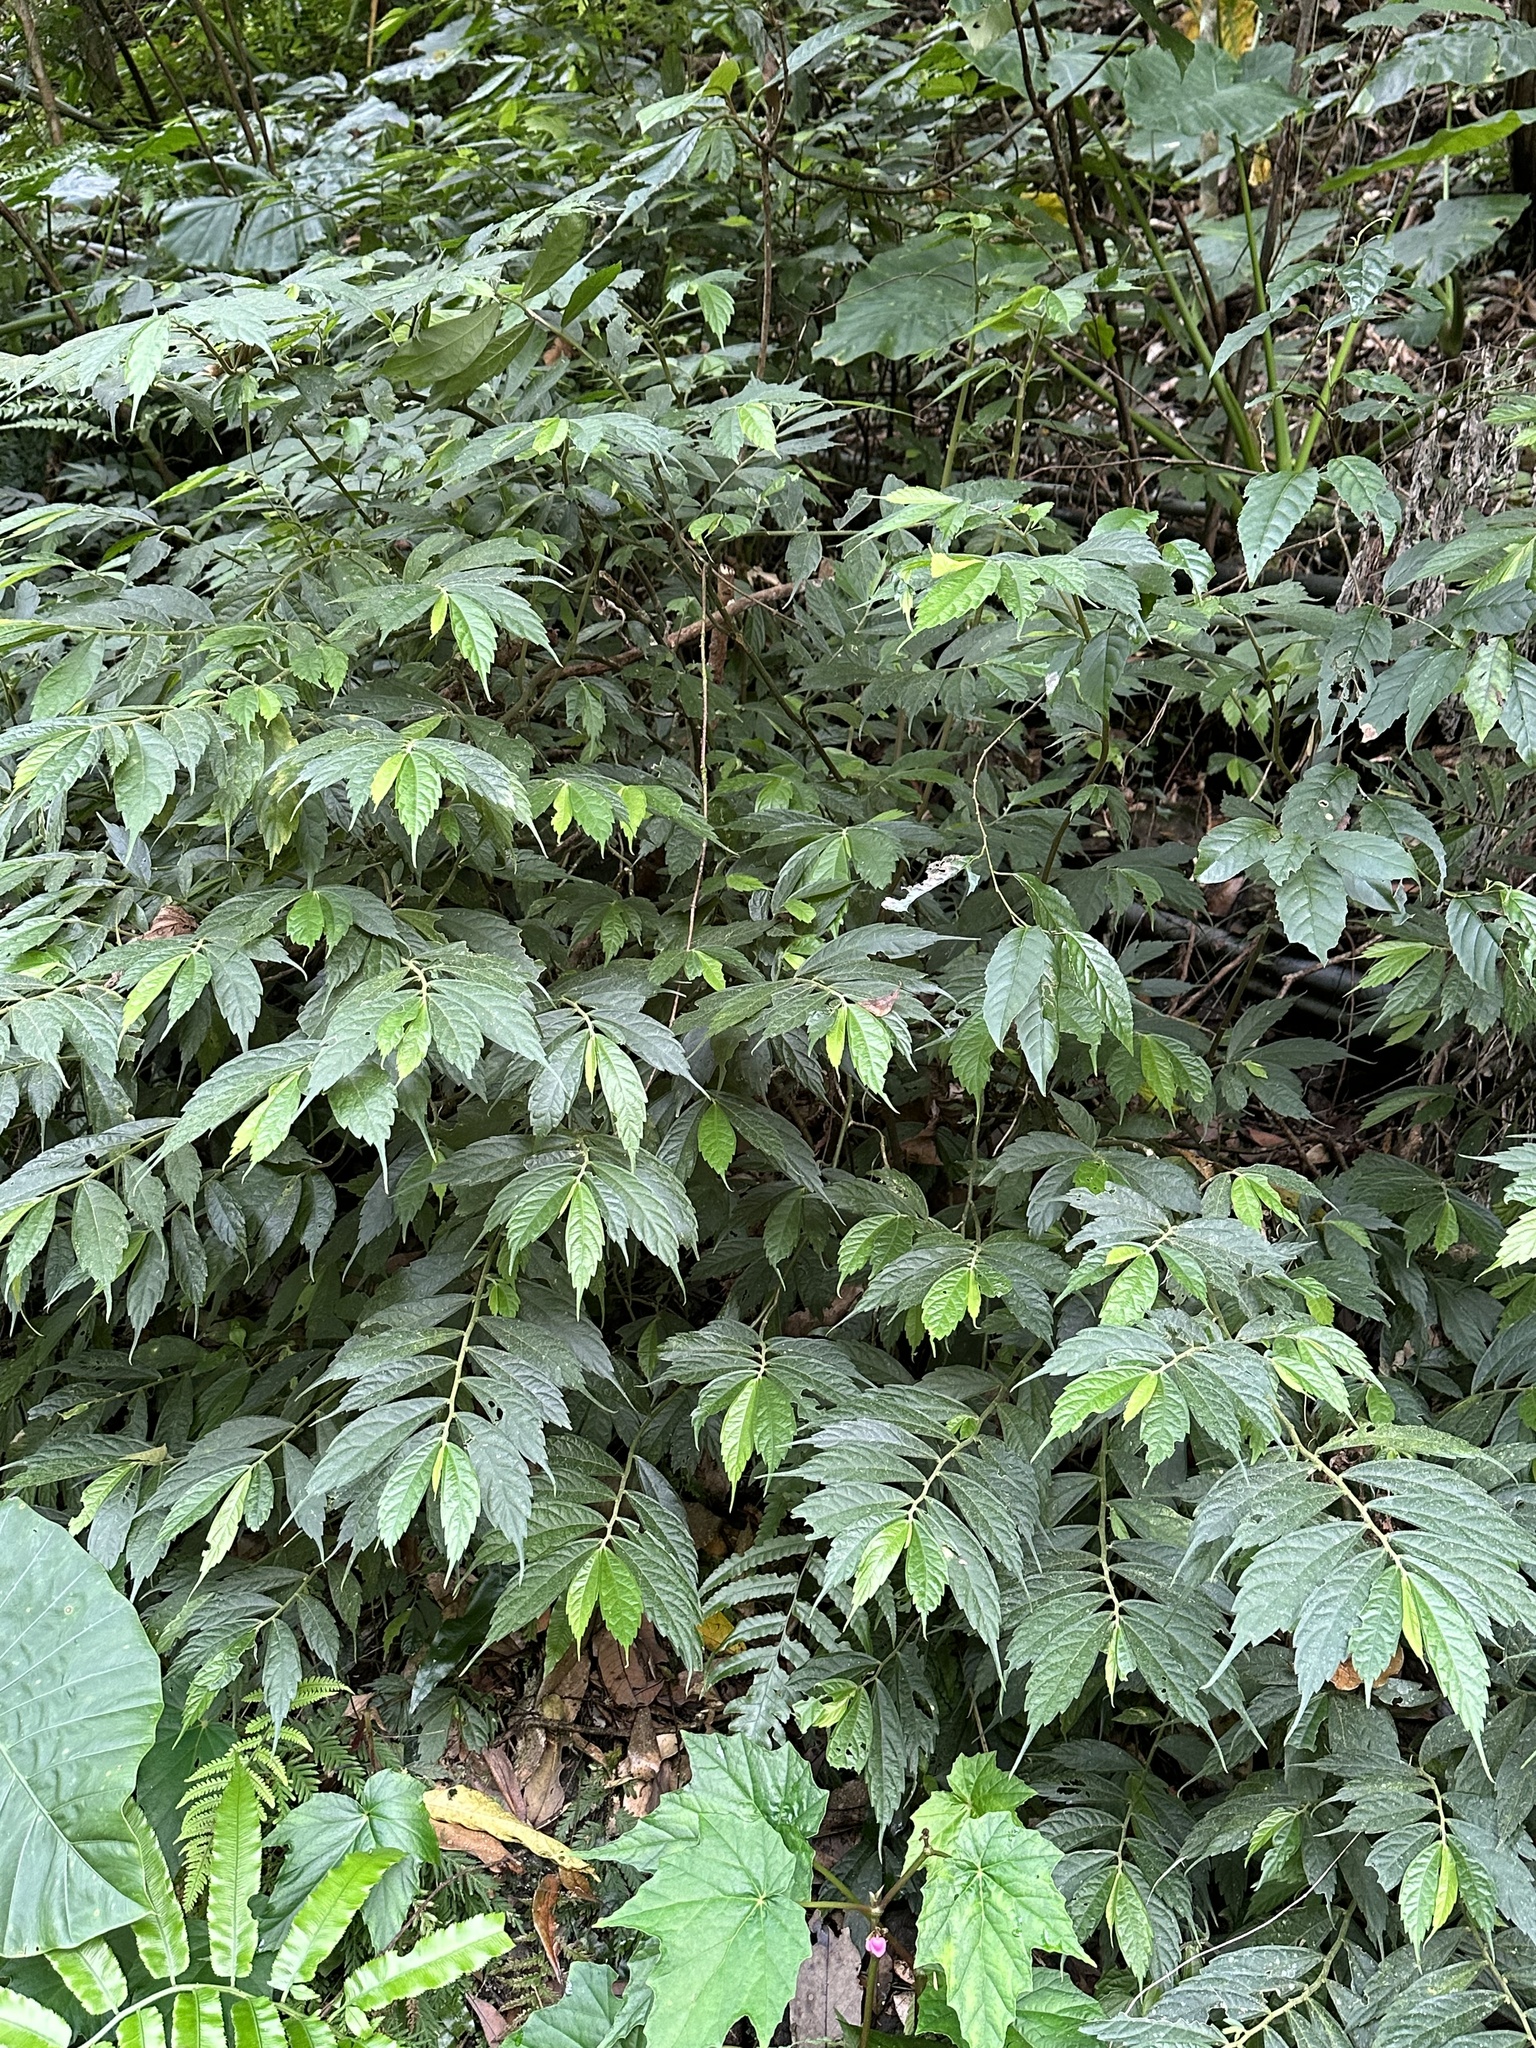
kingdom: Plantae
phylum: Tracheophyta
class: Magnoliopsida
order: Rosales
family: Urticaceae
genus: Elatostema
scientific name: Elatostema lineolatum
